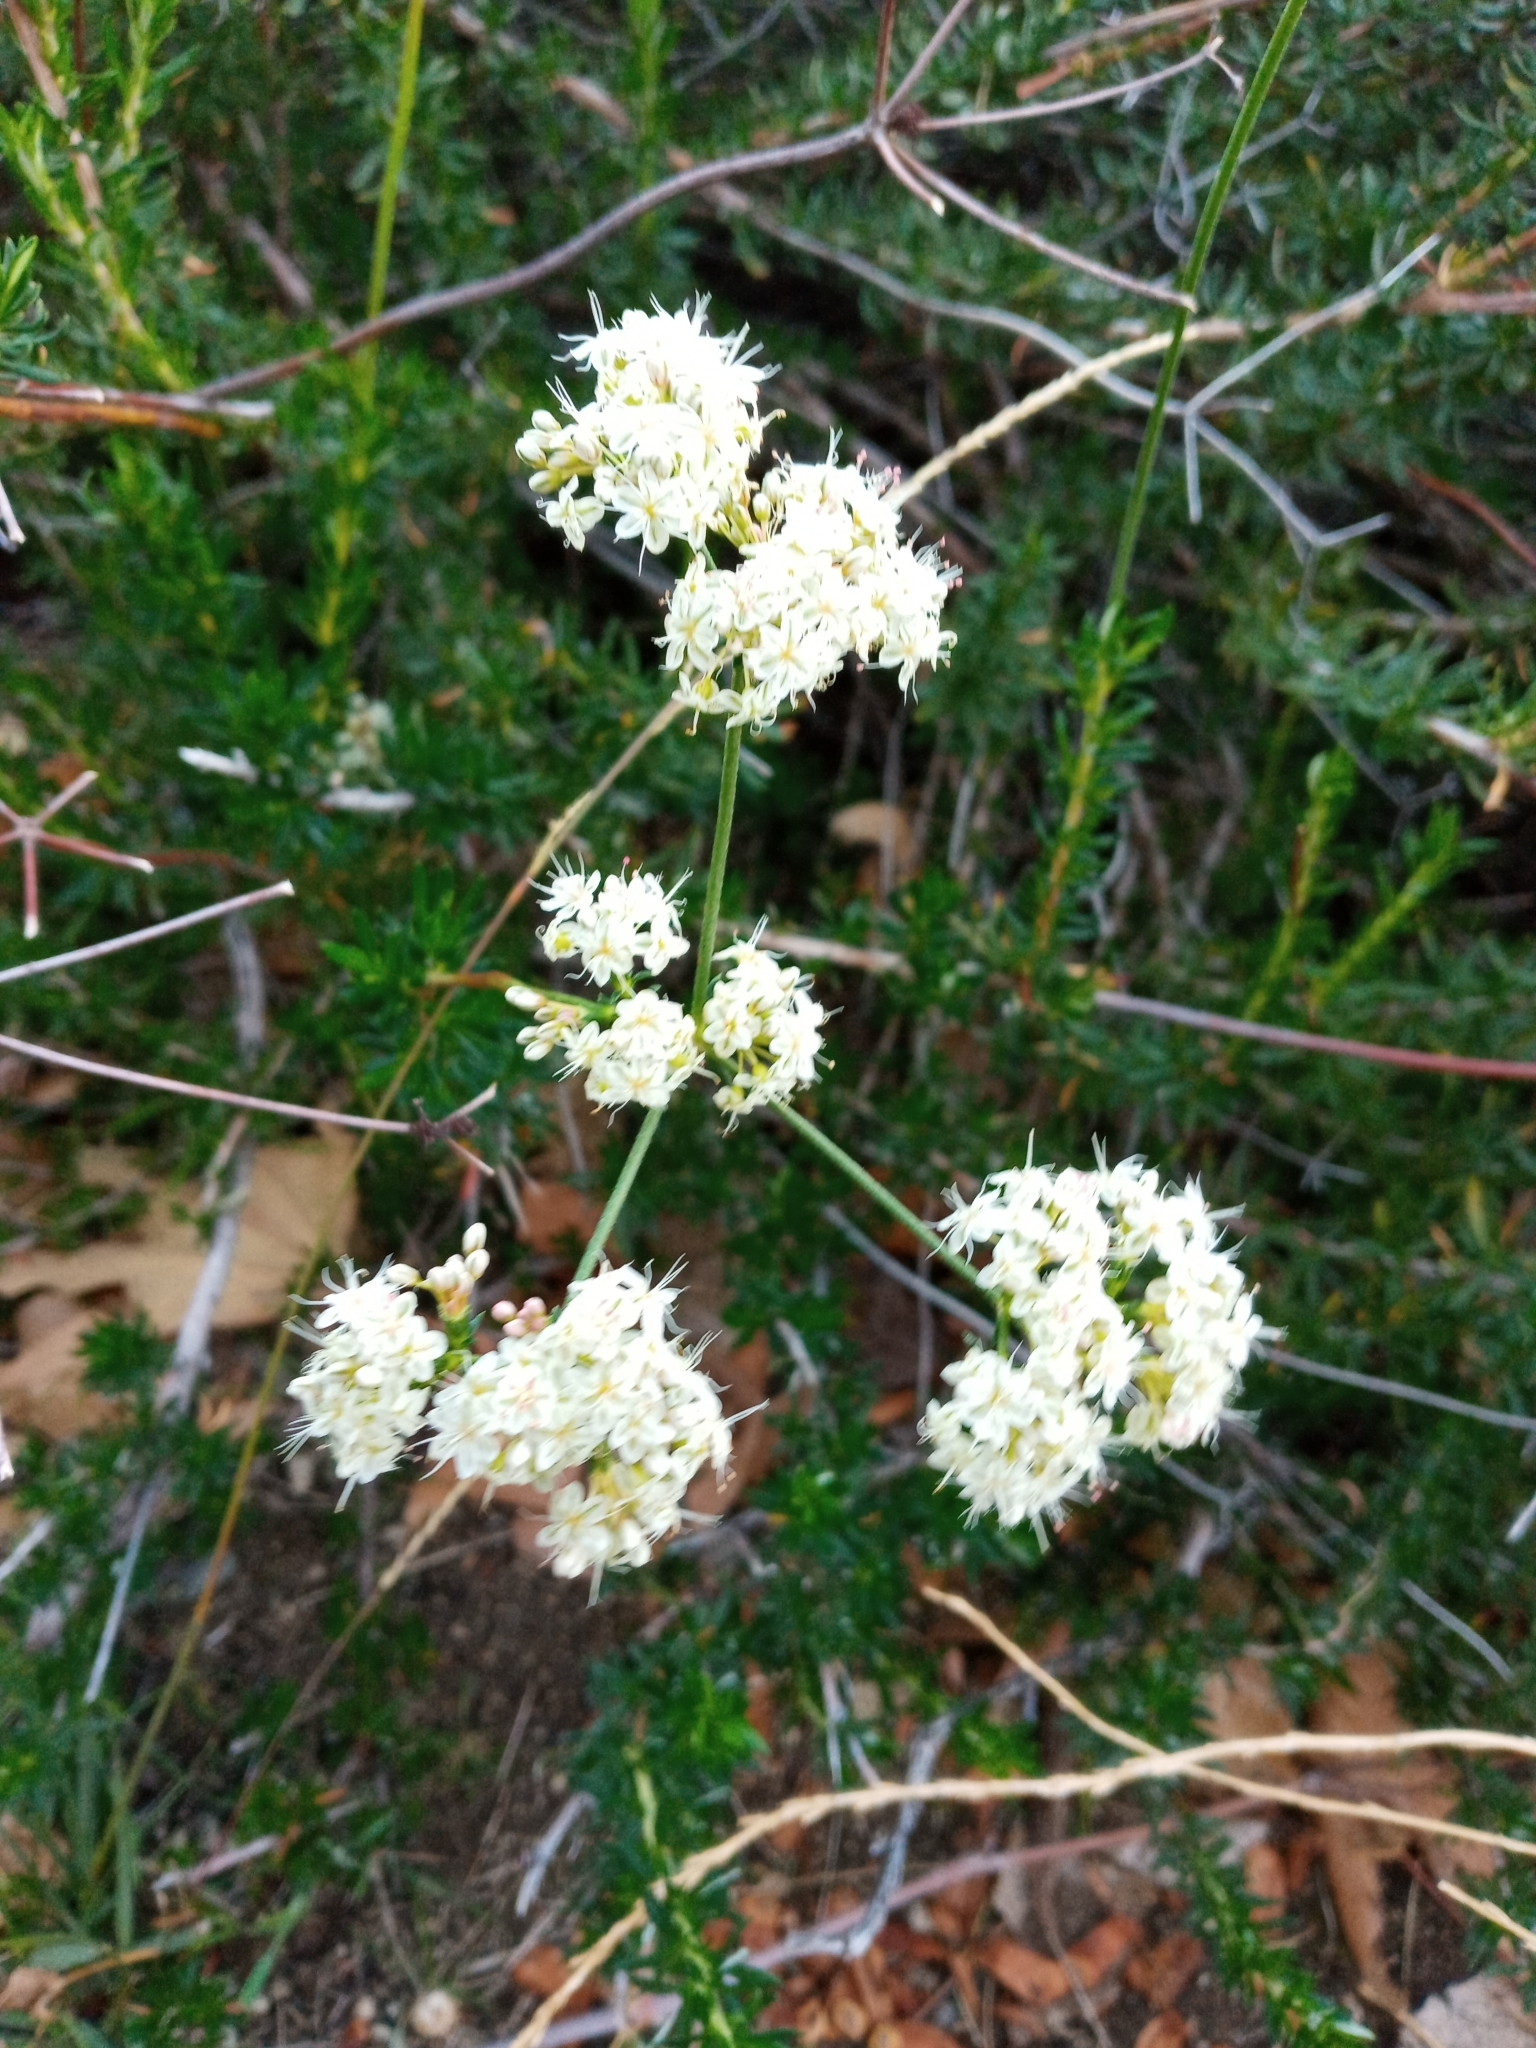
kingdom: Plantae
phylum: Tracheophyta
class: Magnoliopsida
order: Caryophyllales
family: Polygonaceae
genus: Eriogonum
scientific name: Eriogonum fasciculatum
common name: California wild buckwheat
